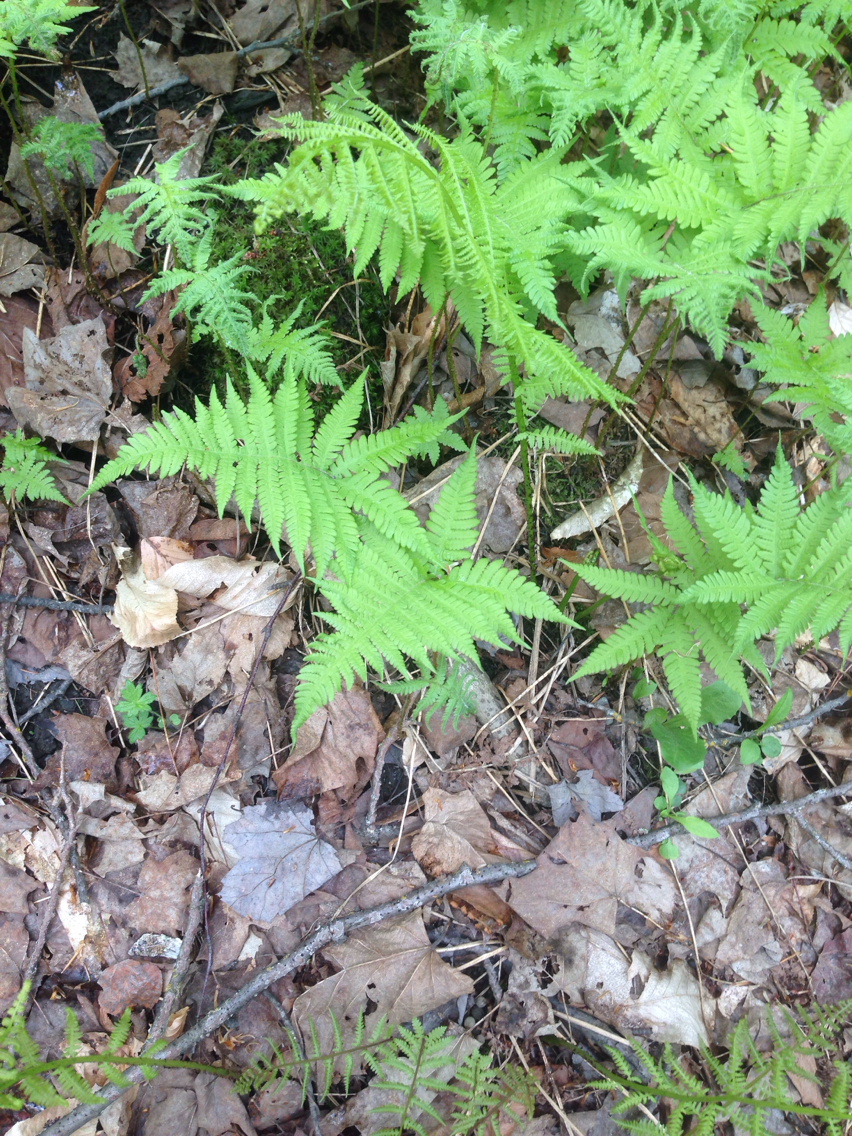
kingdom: Plantae
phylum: Tracheophyta
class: Polypodiopsida
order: Polypodiales
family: Thelypteridaceae
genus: Phegopteris
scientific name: Phegopteris connectilis
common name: Beech fern
